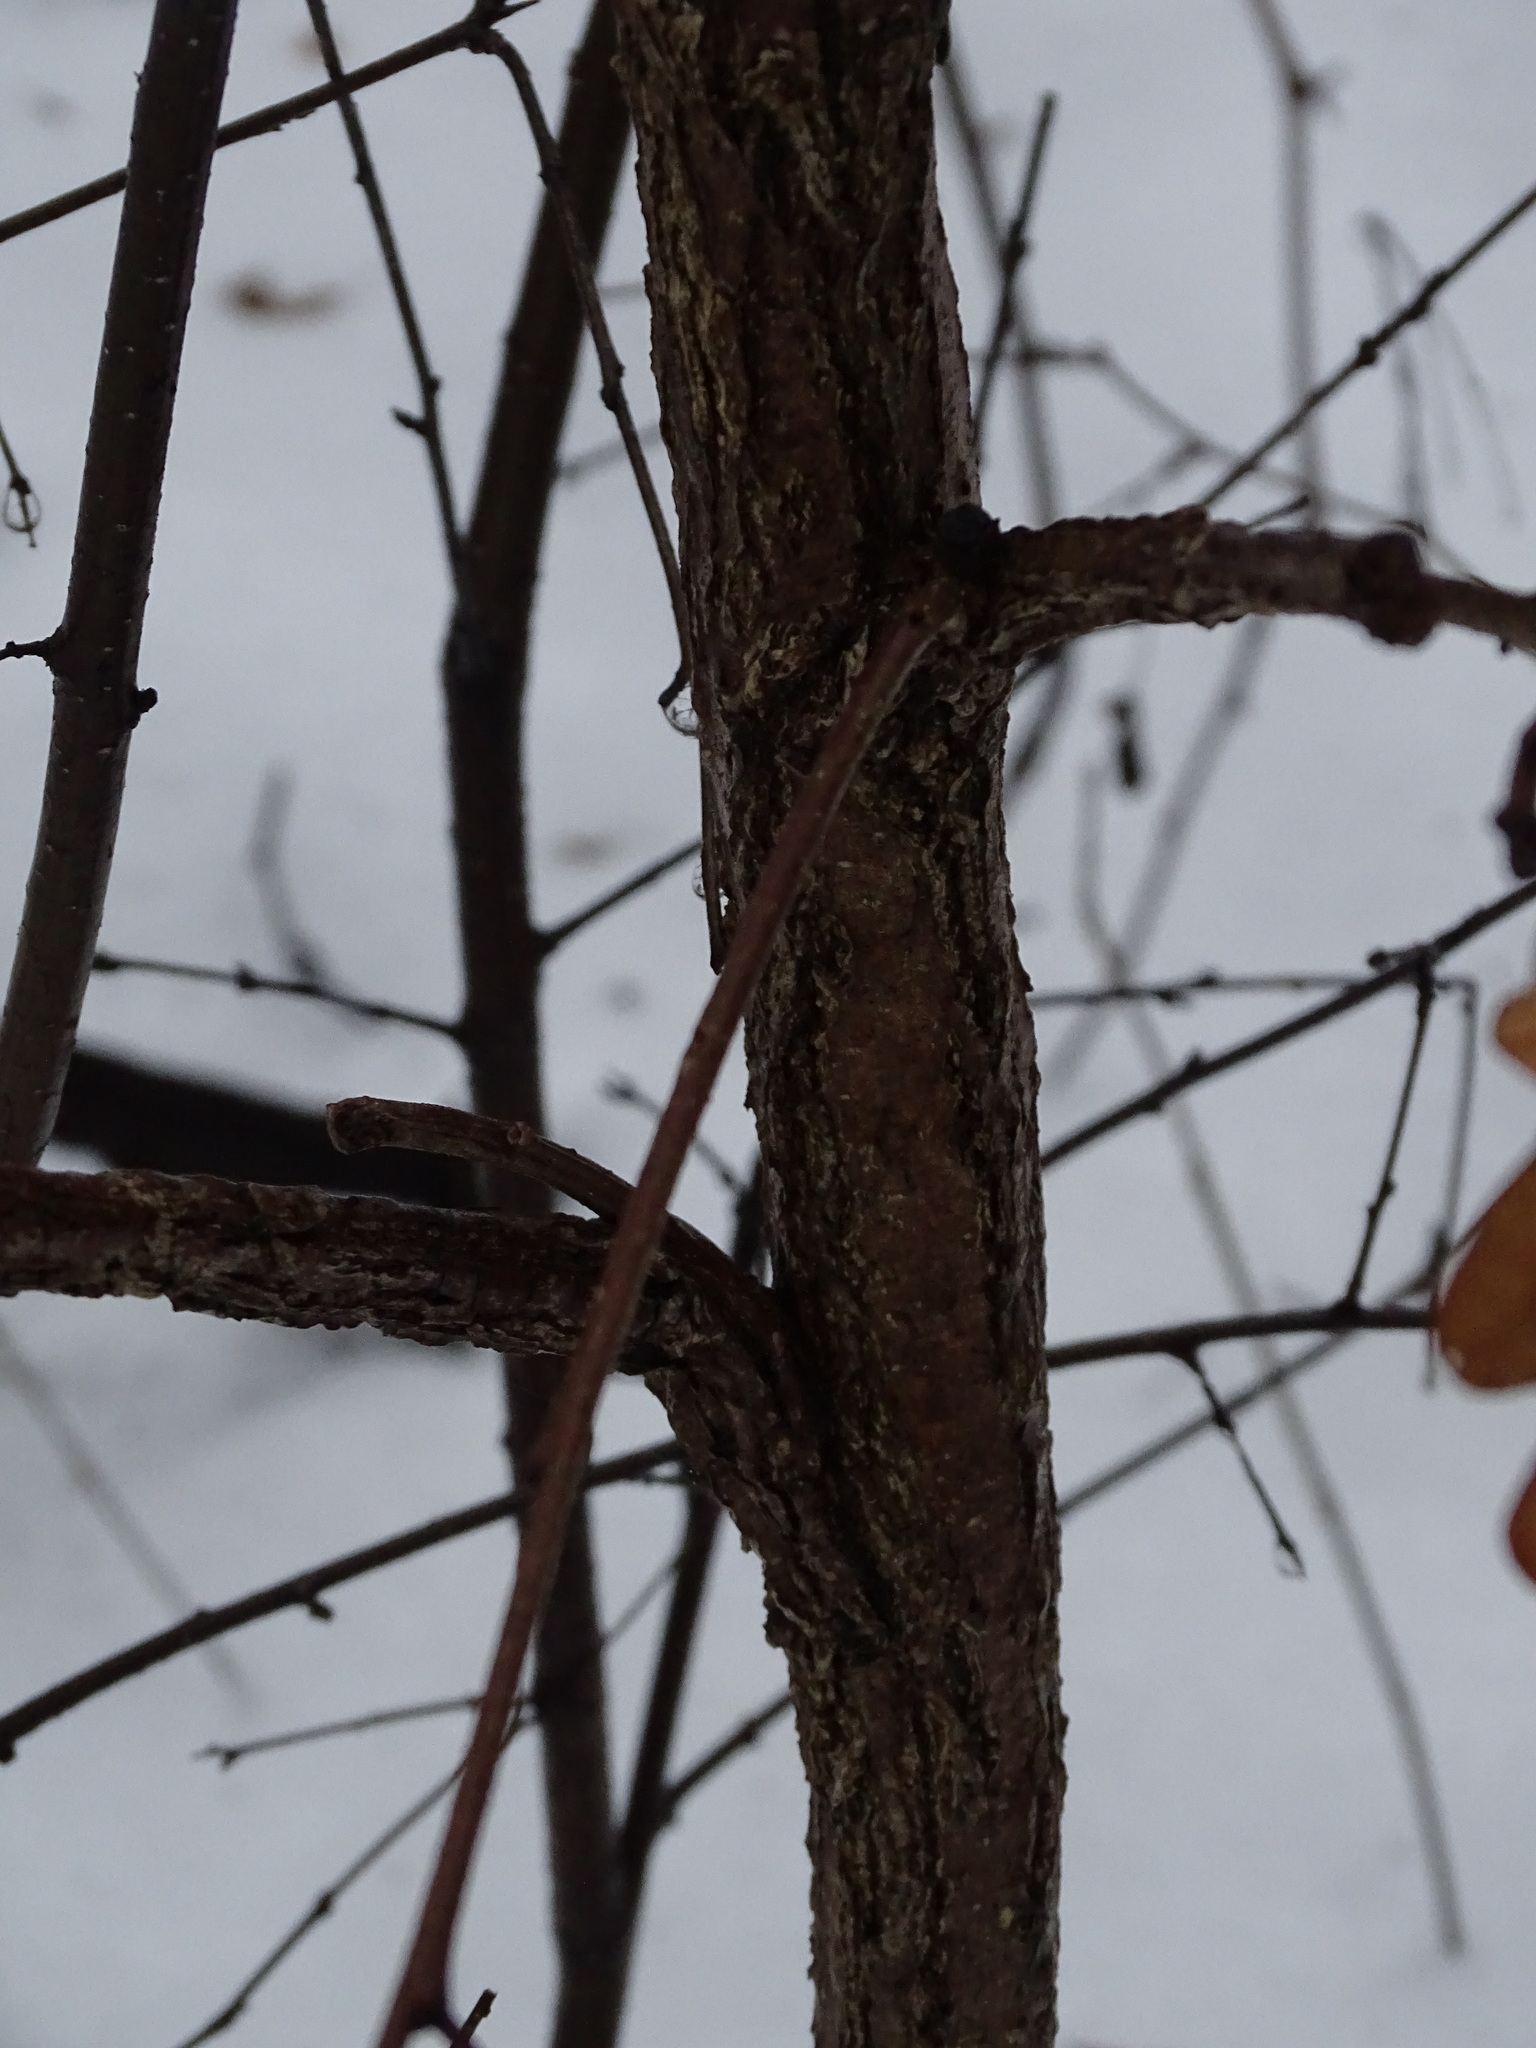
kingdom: Plantae
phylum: Tracheophyta
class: Magnoliopsida
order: Fagales
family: Fagaceae
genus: Quercus
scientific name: Quercus alba
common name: White oak
